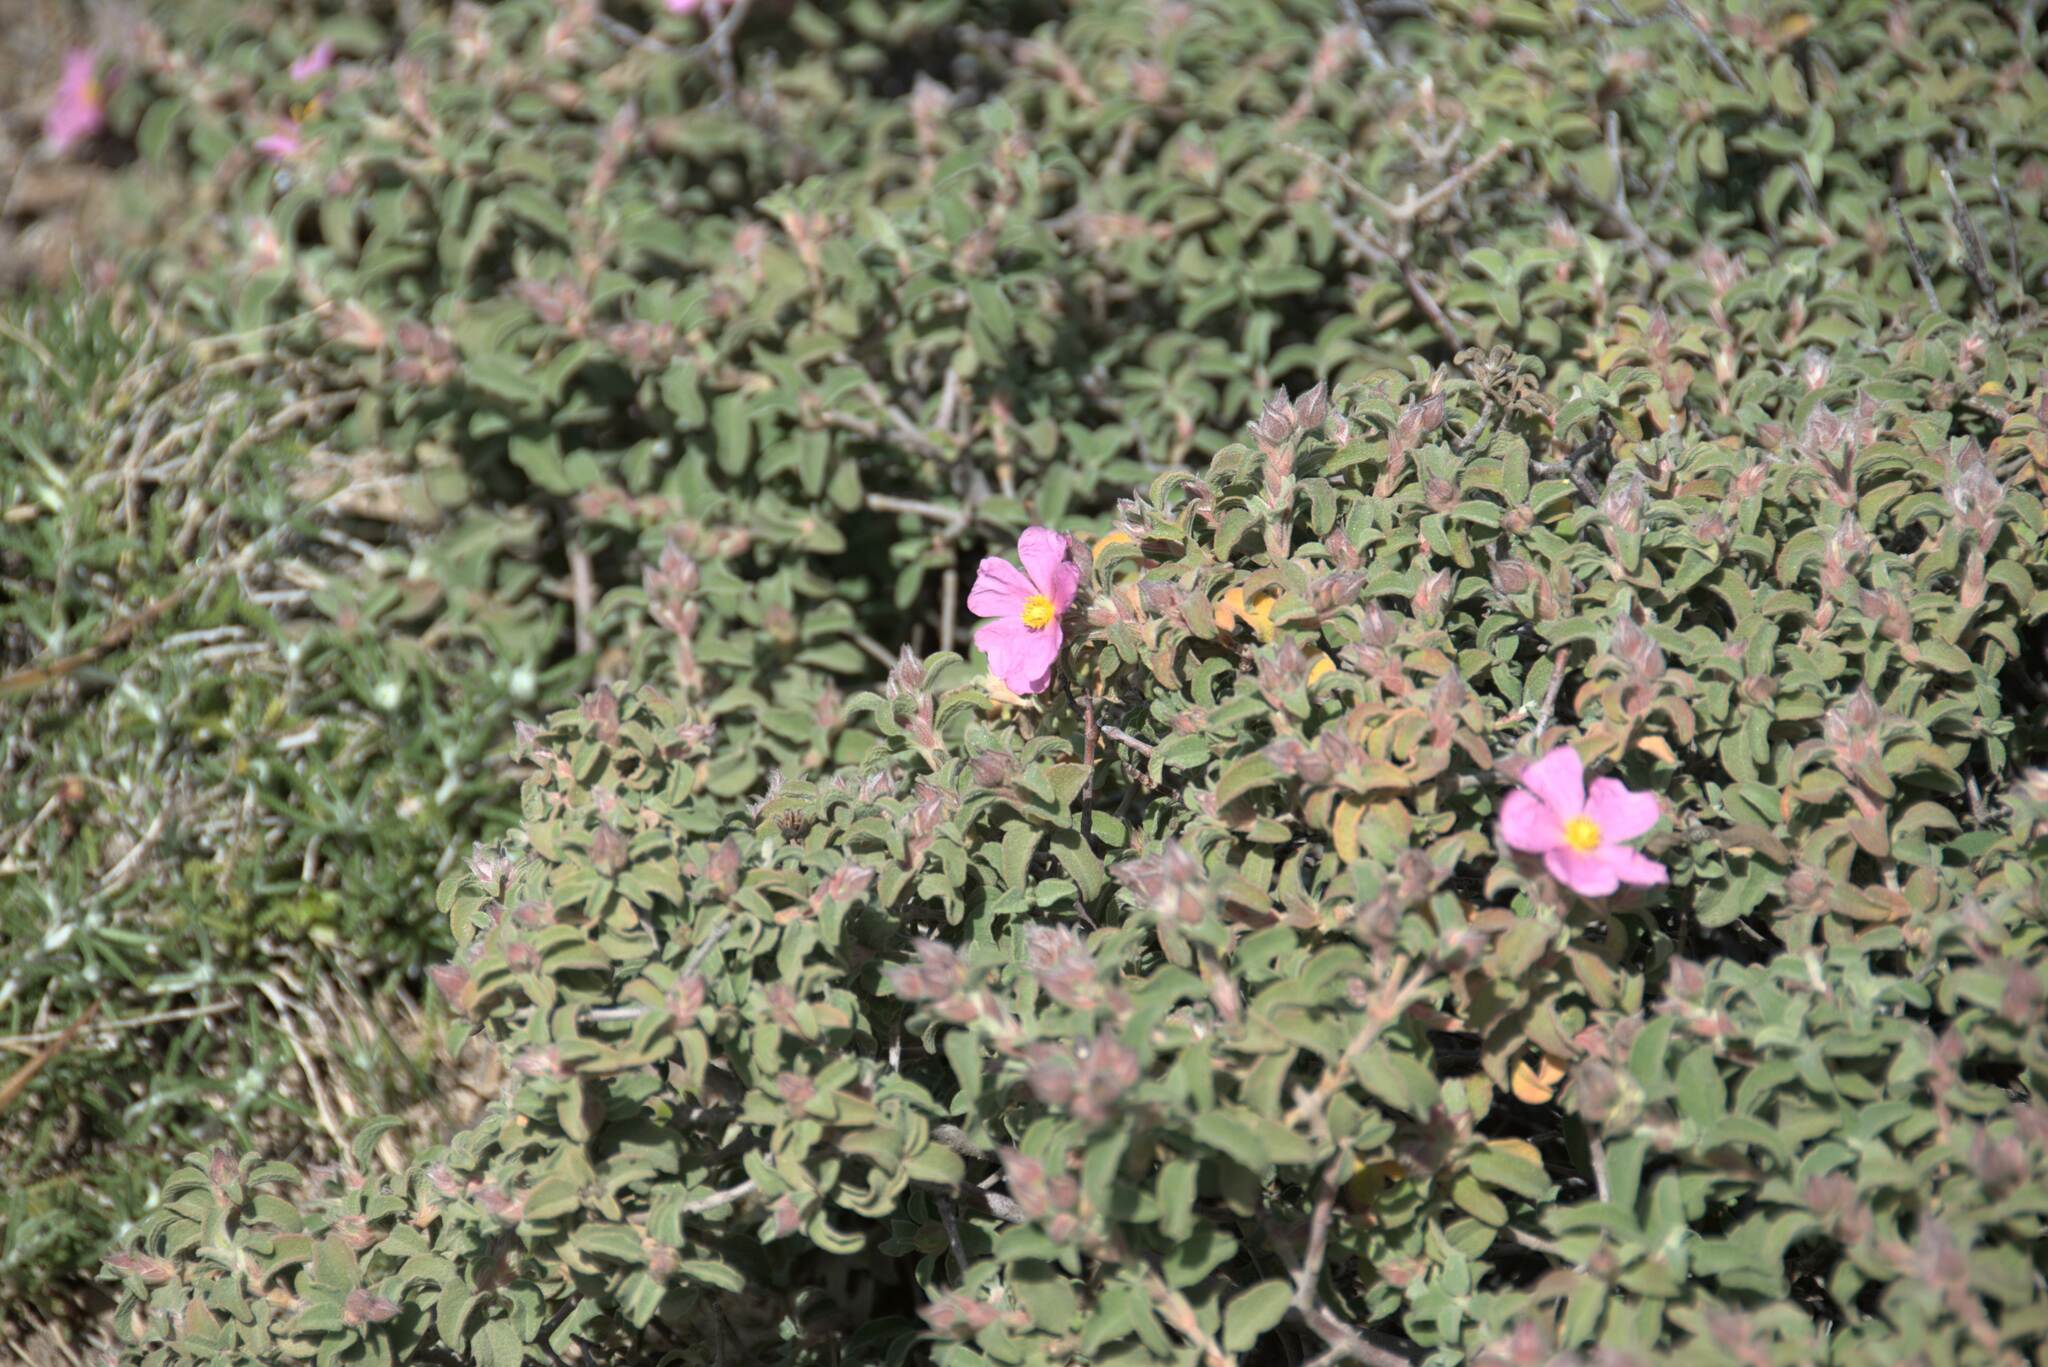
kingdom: Plantae
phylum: Tracheophyta
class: Magnoliopsida
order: Malvales
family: Cistaceae
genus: Cistus
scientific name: Cistus parviflorus
